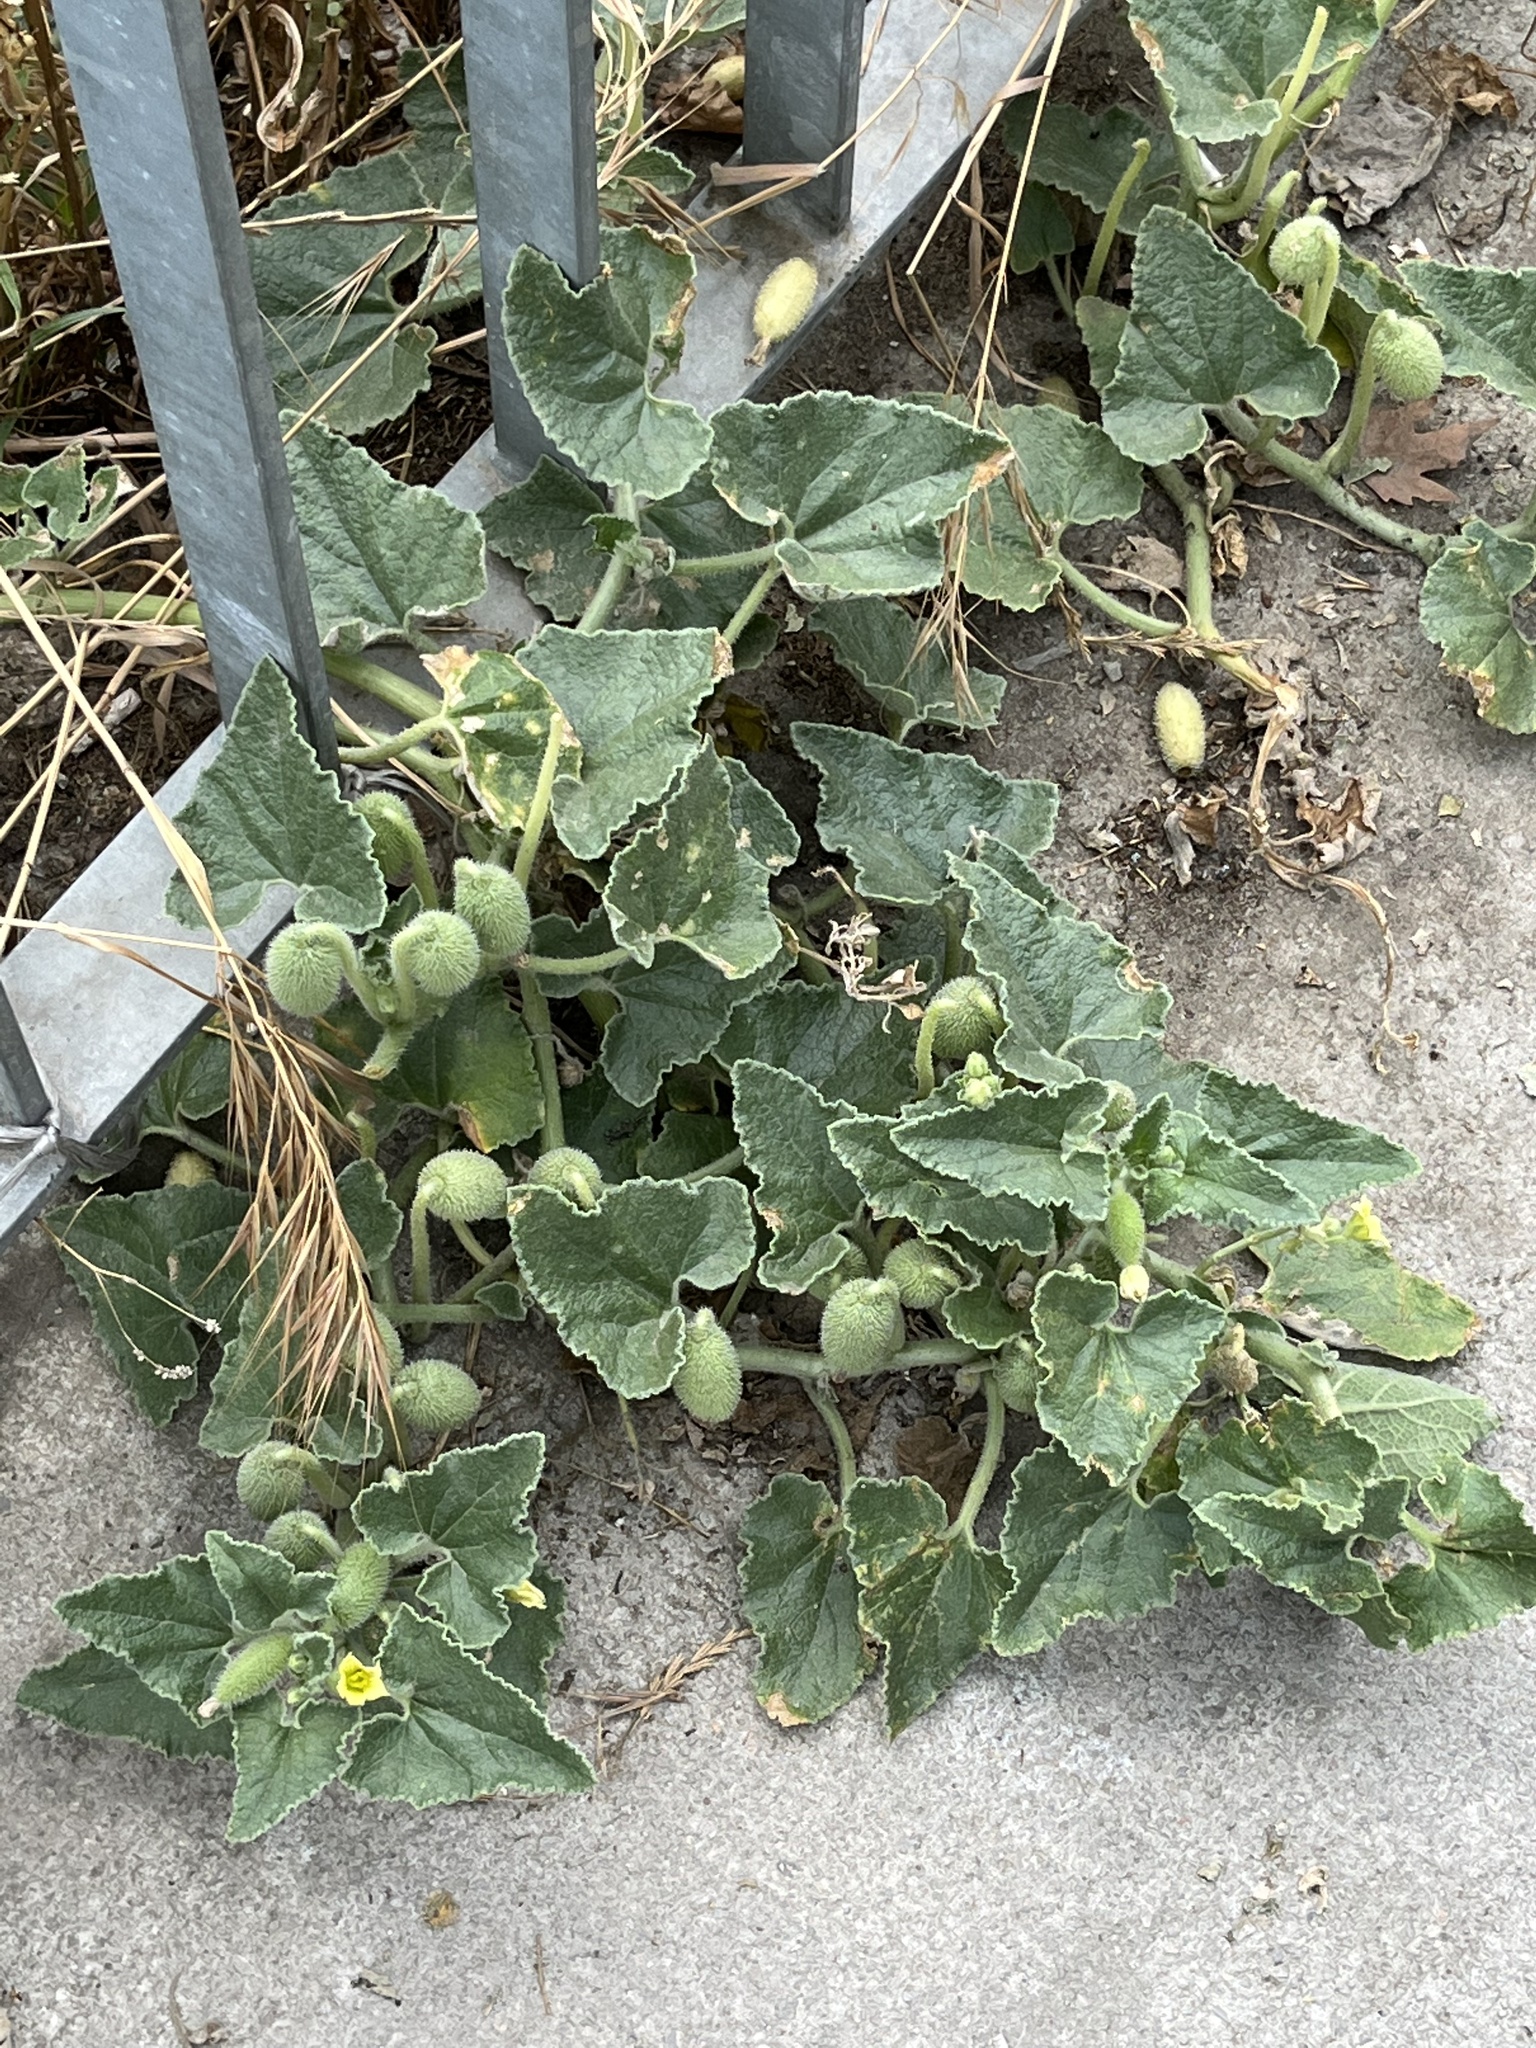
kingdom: Plantae
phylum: Tracheophyta
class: Magnoliopsida
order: Cucurbitales
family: Cucurbitaceae
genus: Ecballium
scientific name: Ecballium elaterium
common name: Squirting cucumber
